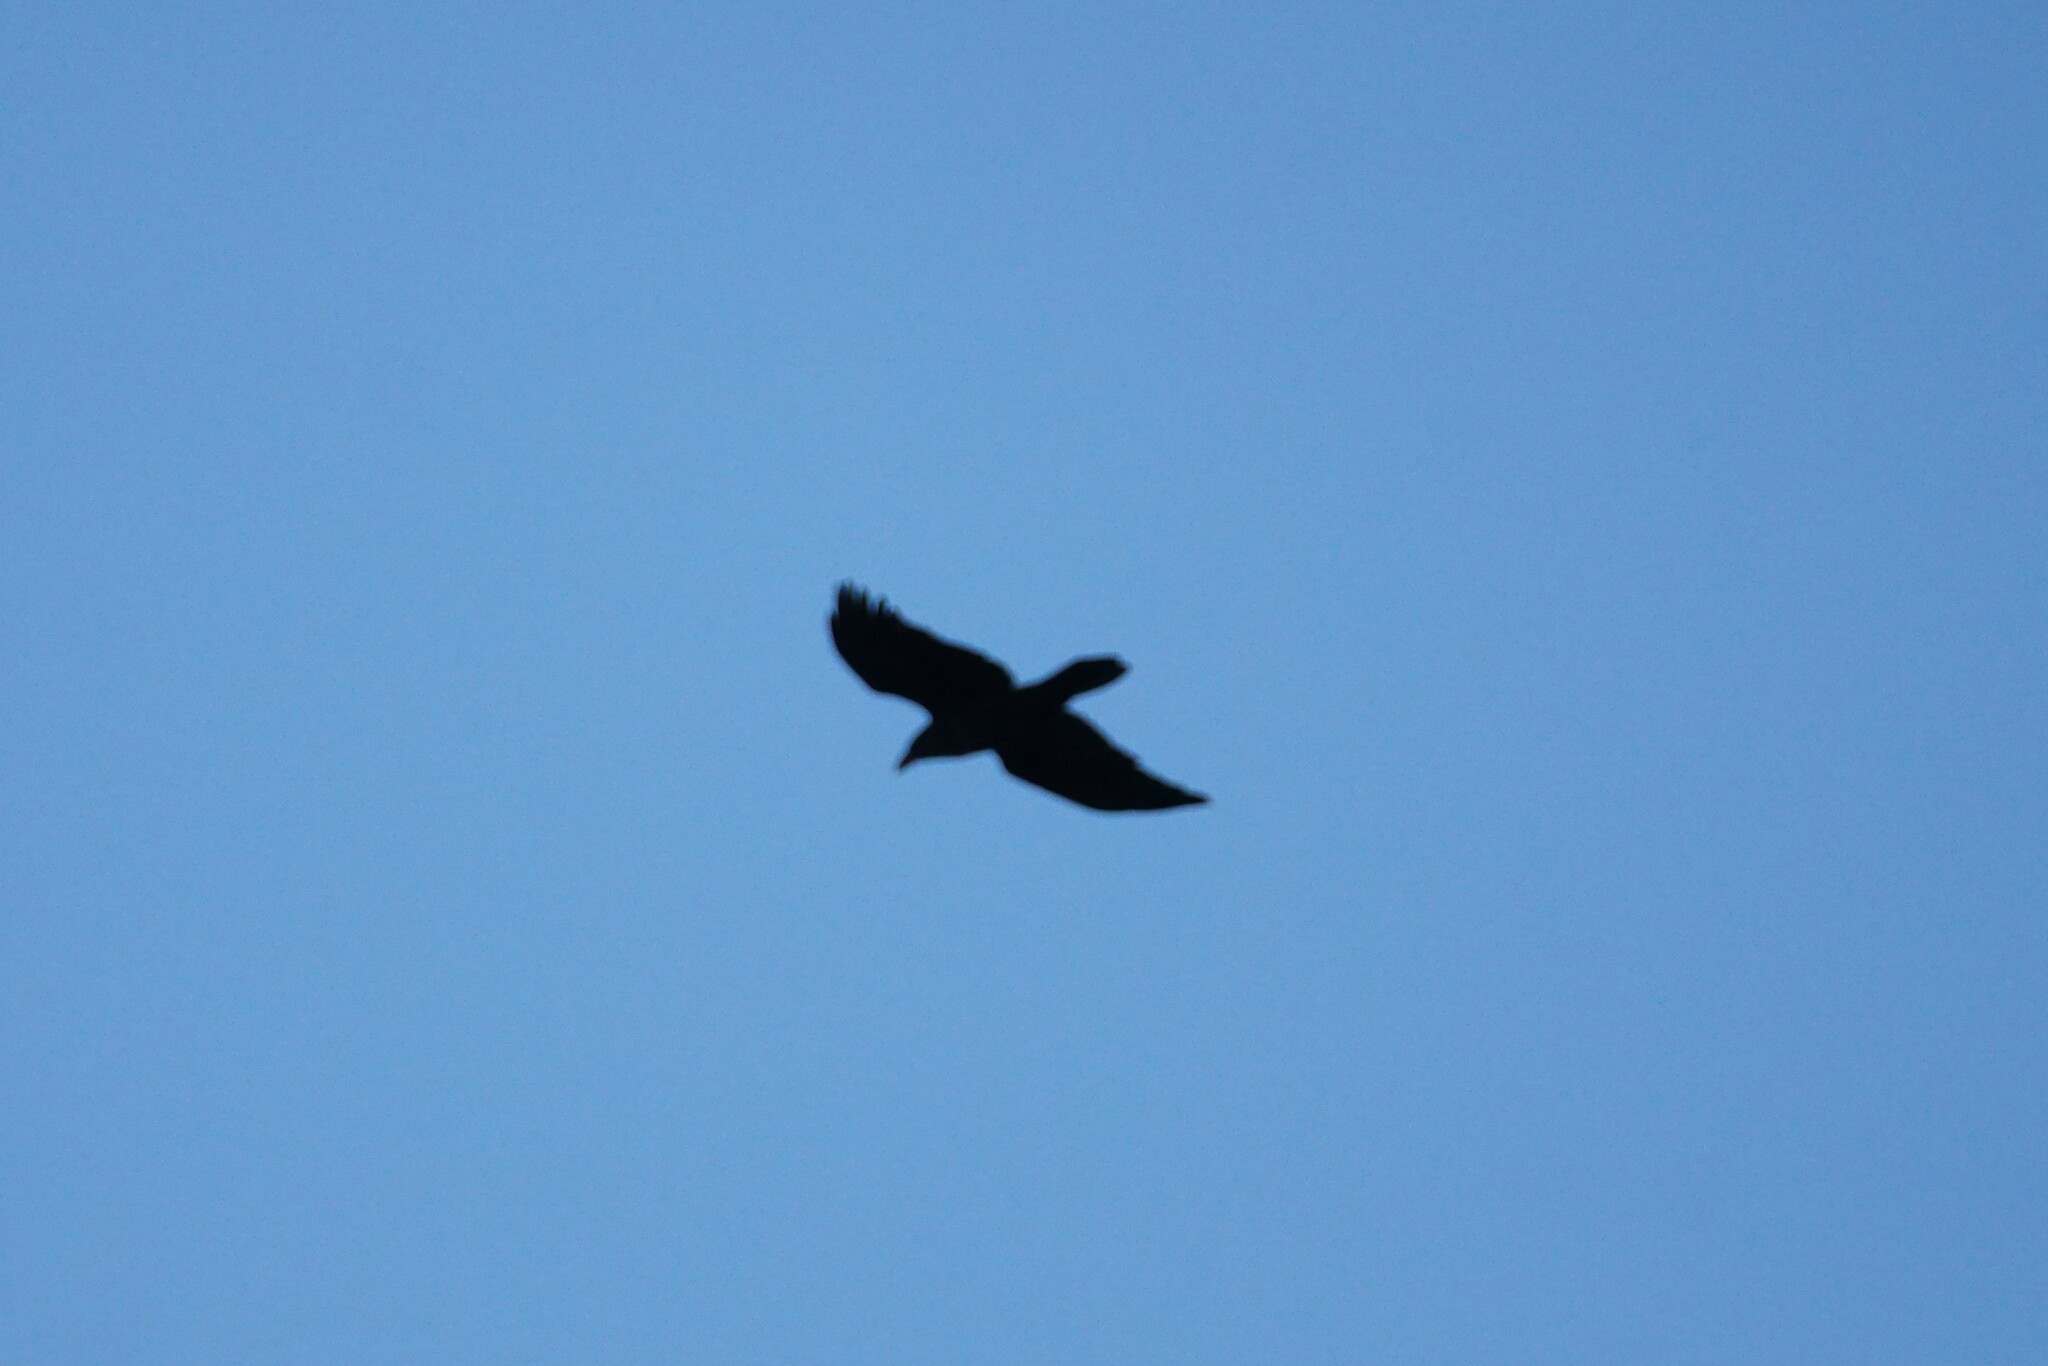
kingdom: Animalia
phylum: Chordata
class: Aves
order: Passeriformes
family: Corvidae
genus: Corvus
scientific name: Corvus corax
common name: Common raven
